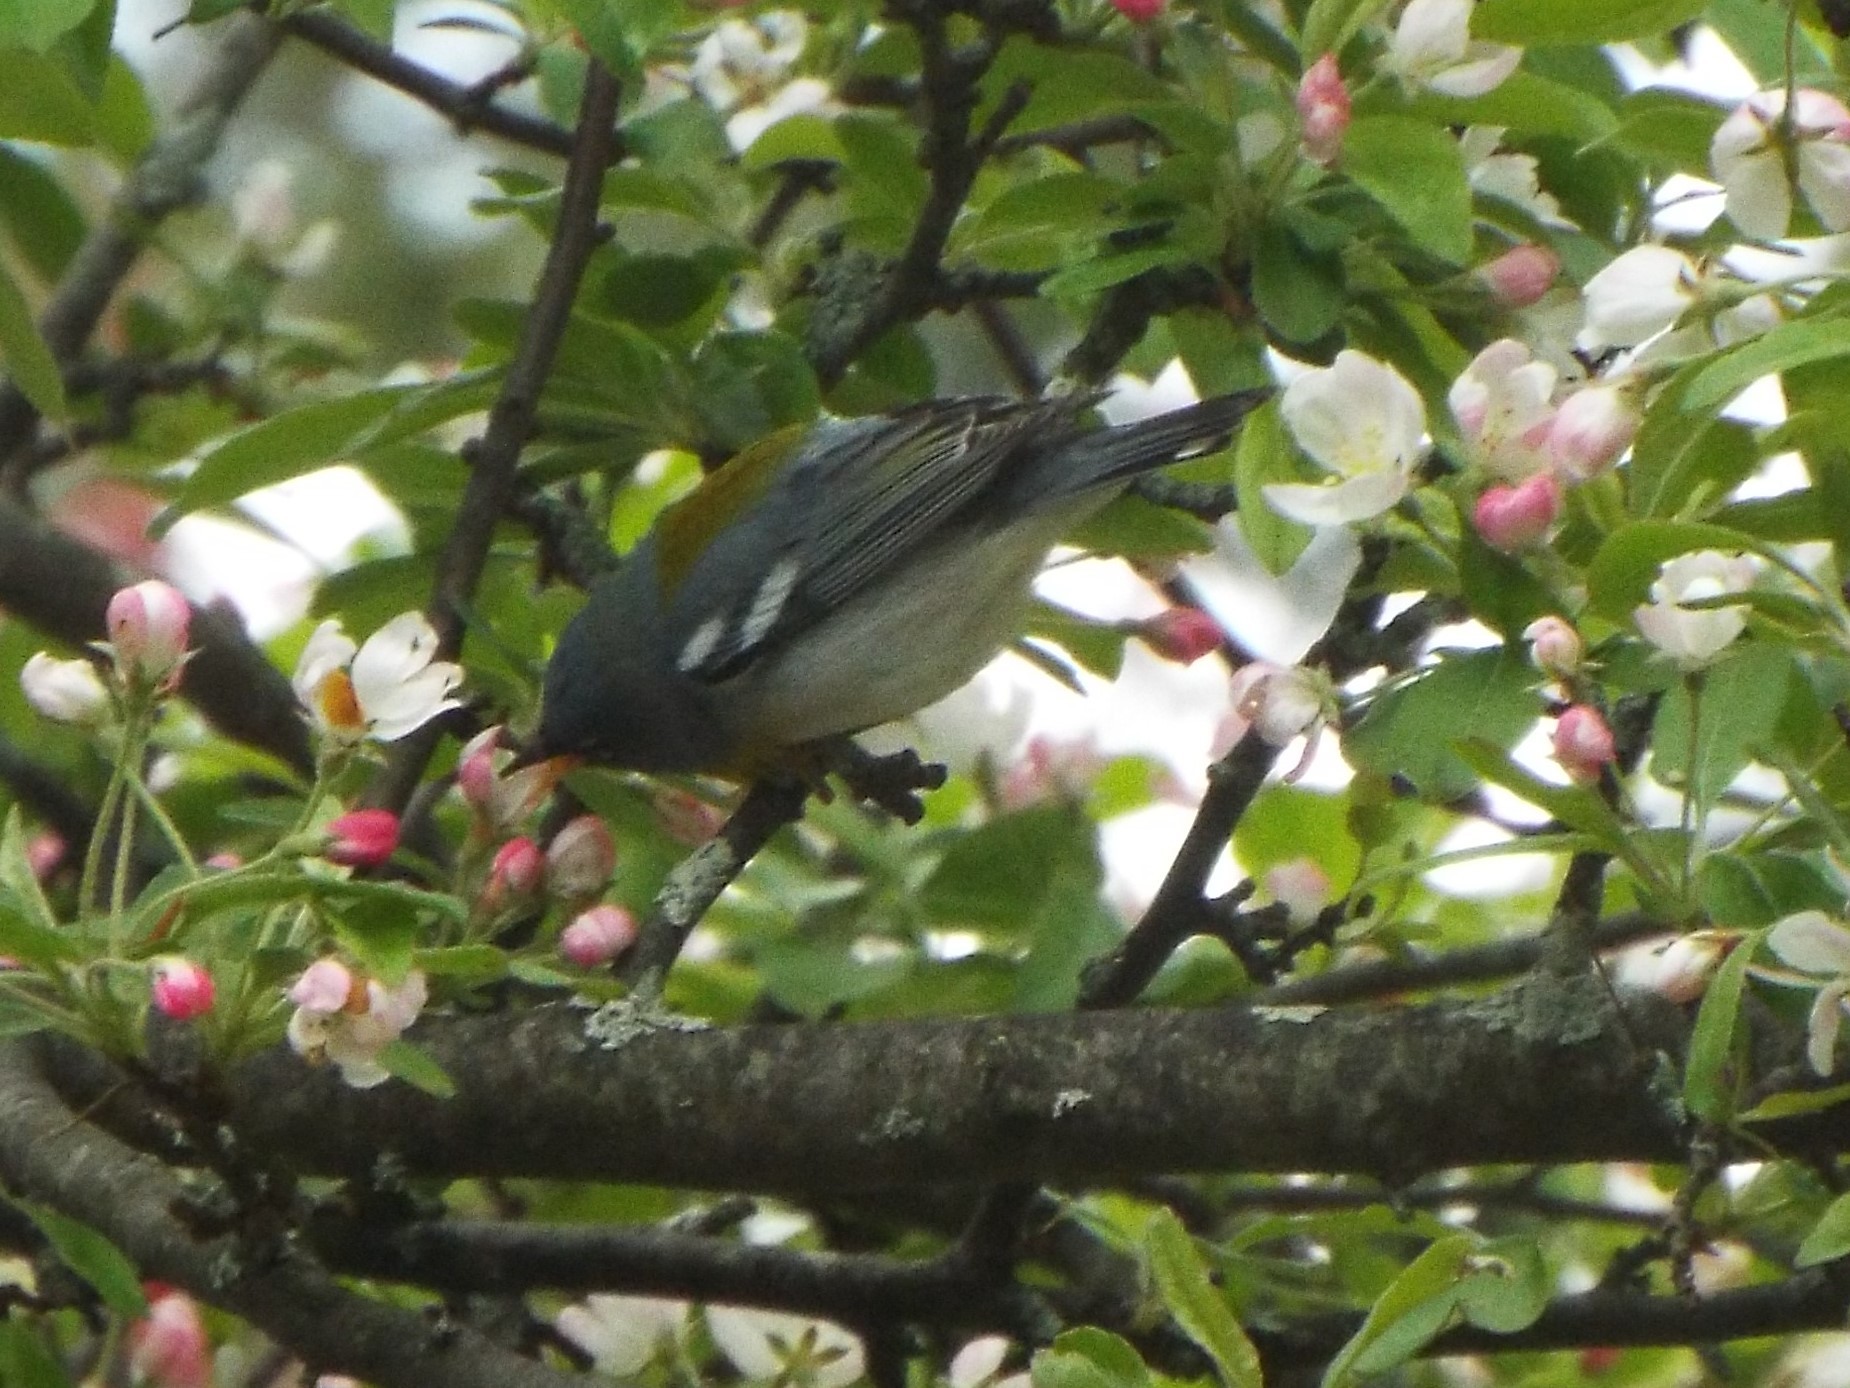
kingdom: Animalia
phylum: Chordata
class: Aves
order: Passeriformes
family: Parulidae
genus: Setophaga
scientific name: Setophaga americana
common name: Northern parula
